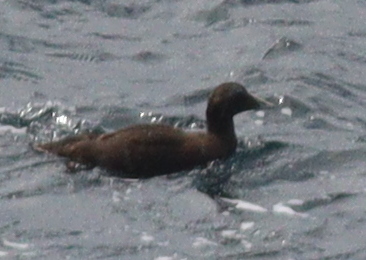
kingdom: Animalia
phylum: Chordata
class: Aves
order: Anseriformes
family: Anatidae
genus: Somateria
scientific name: Somateria mollissima
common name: Common eider
